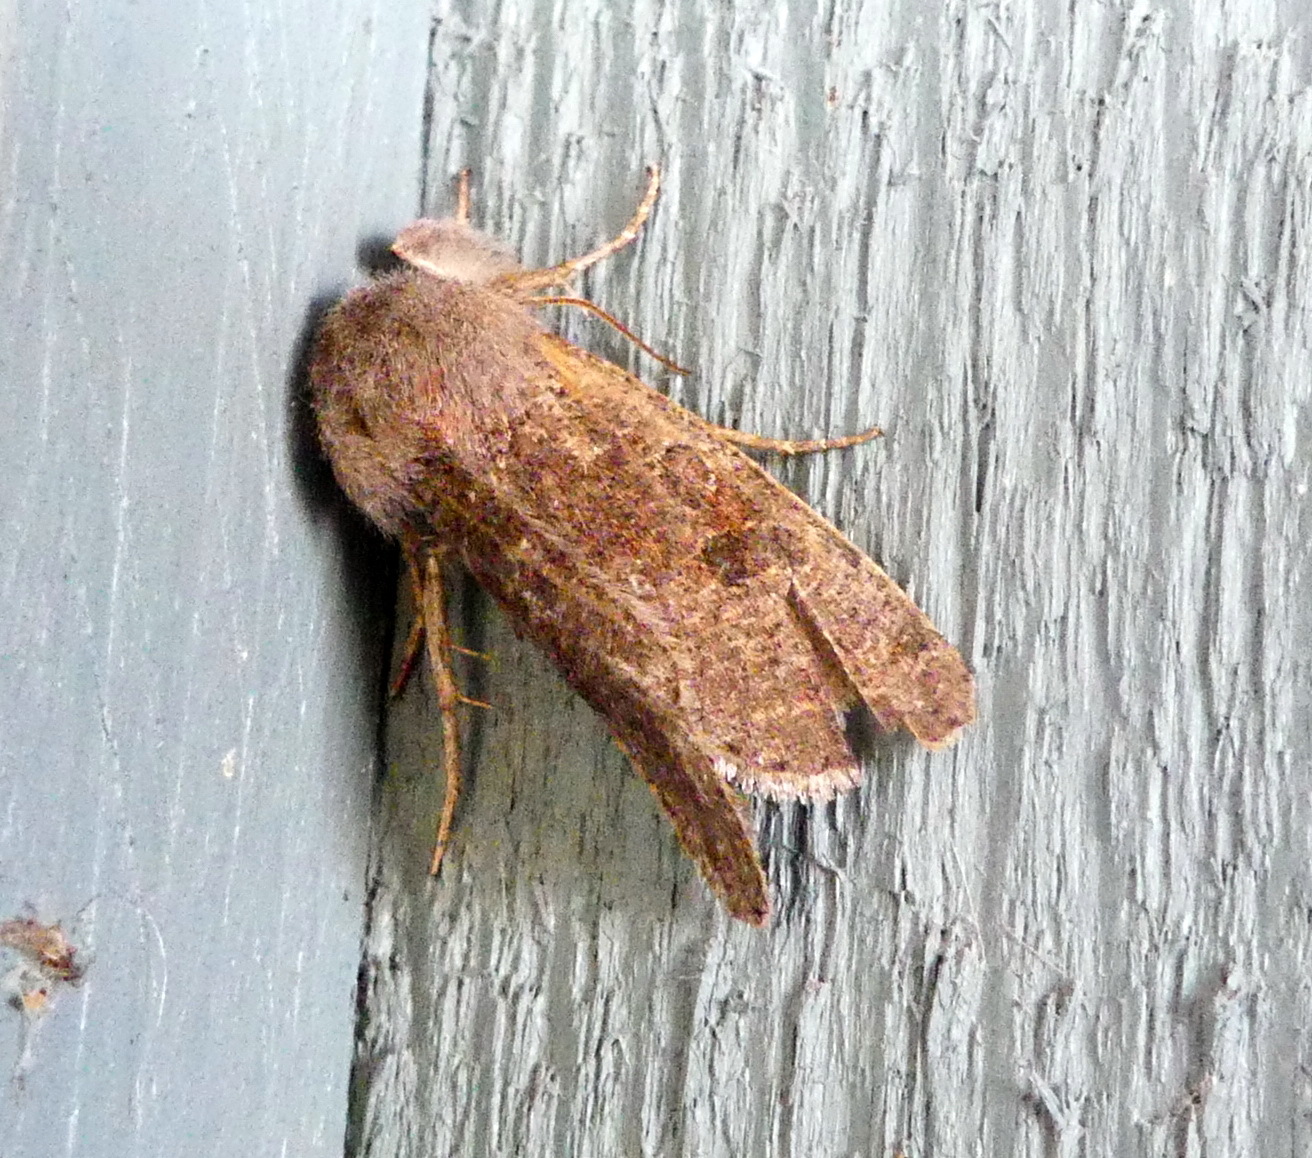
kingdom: Animalia
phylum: Arthropoda
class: Insecta
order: Lepidoptera
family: Noctuidae
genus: Orthosia
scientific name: Orthosia hibisci
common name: Green fruitworm
